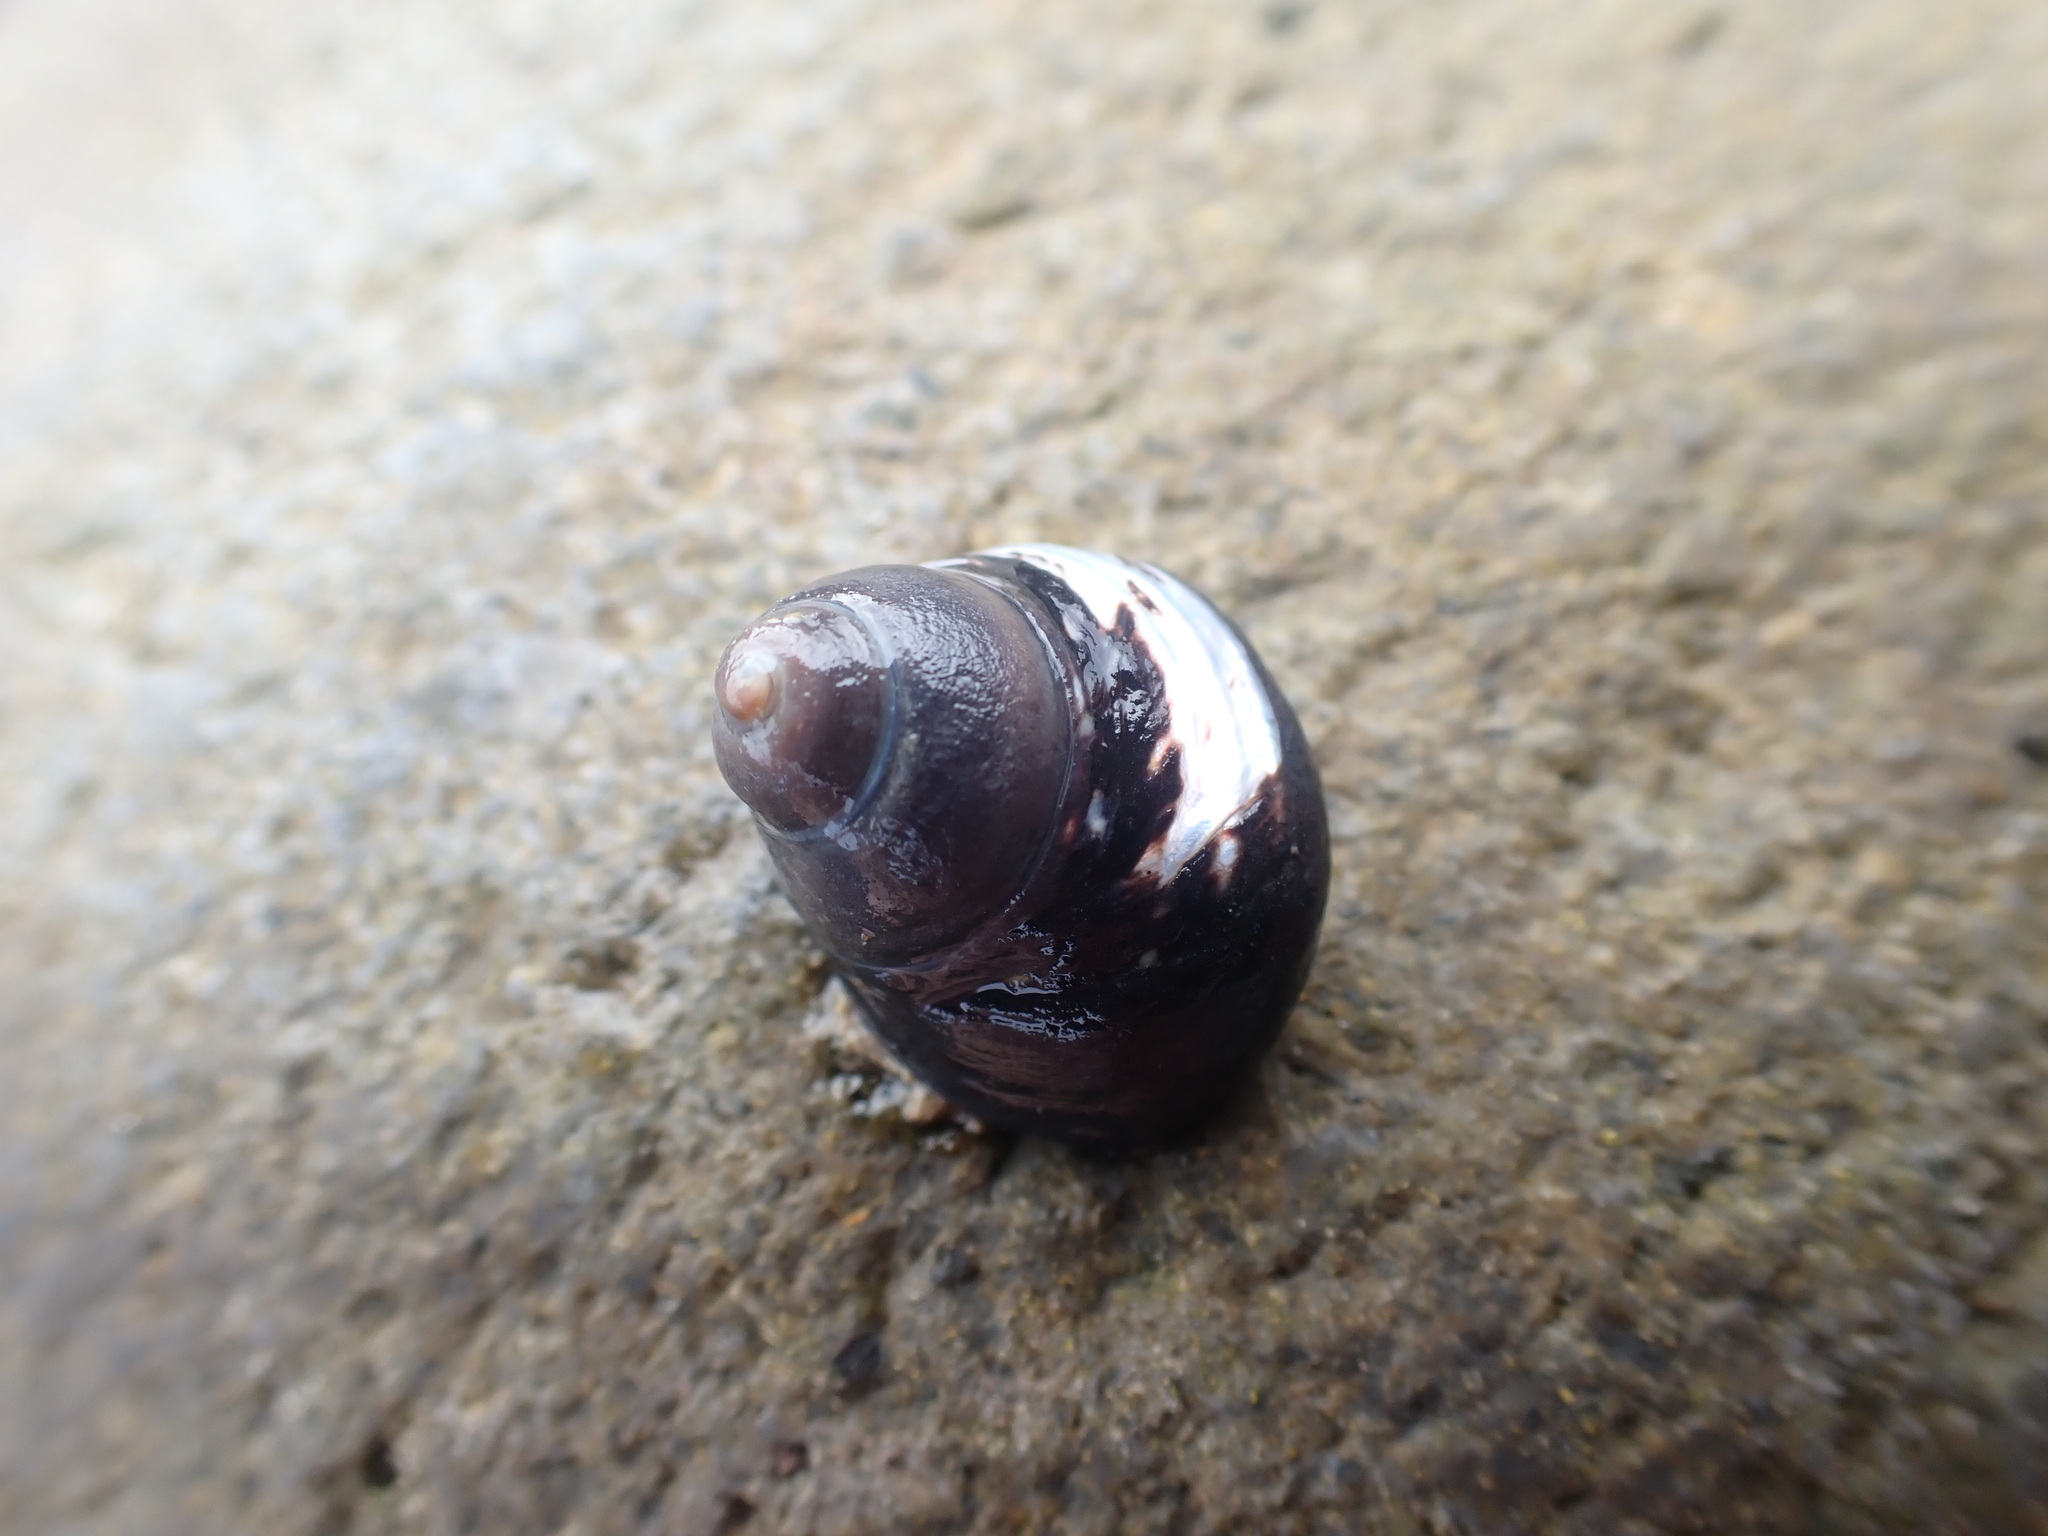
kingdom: Animalia
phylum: Mollusca
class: Gastropoda
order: Trochida
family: Trochidae
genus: Diloma
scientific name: Diloma aridum
